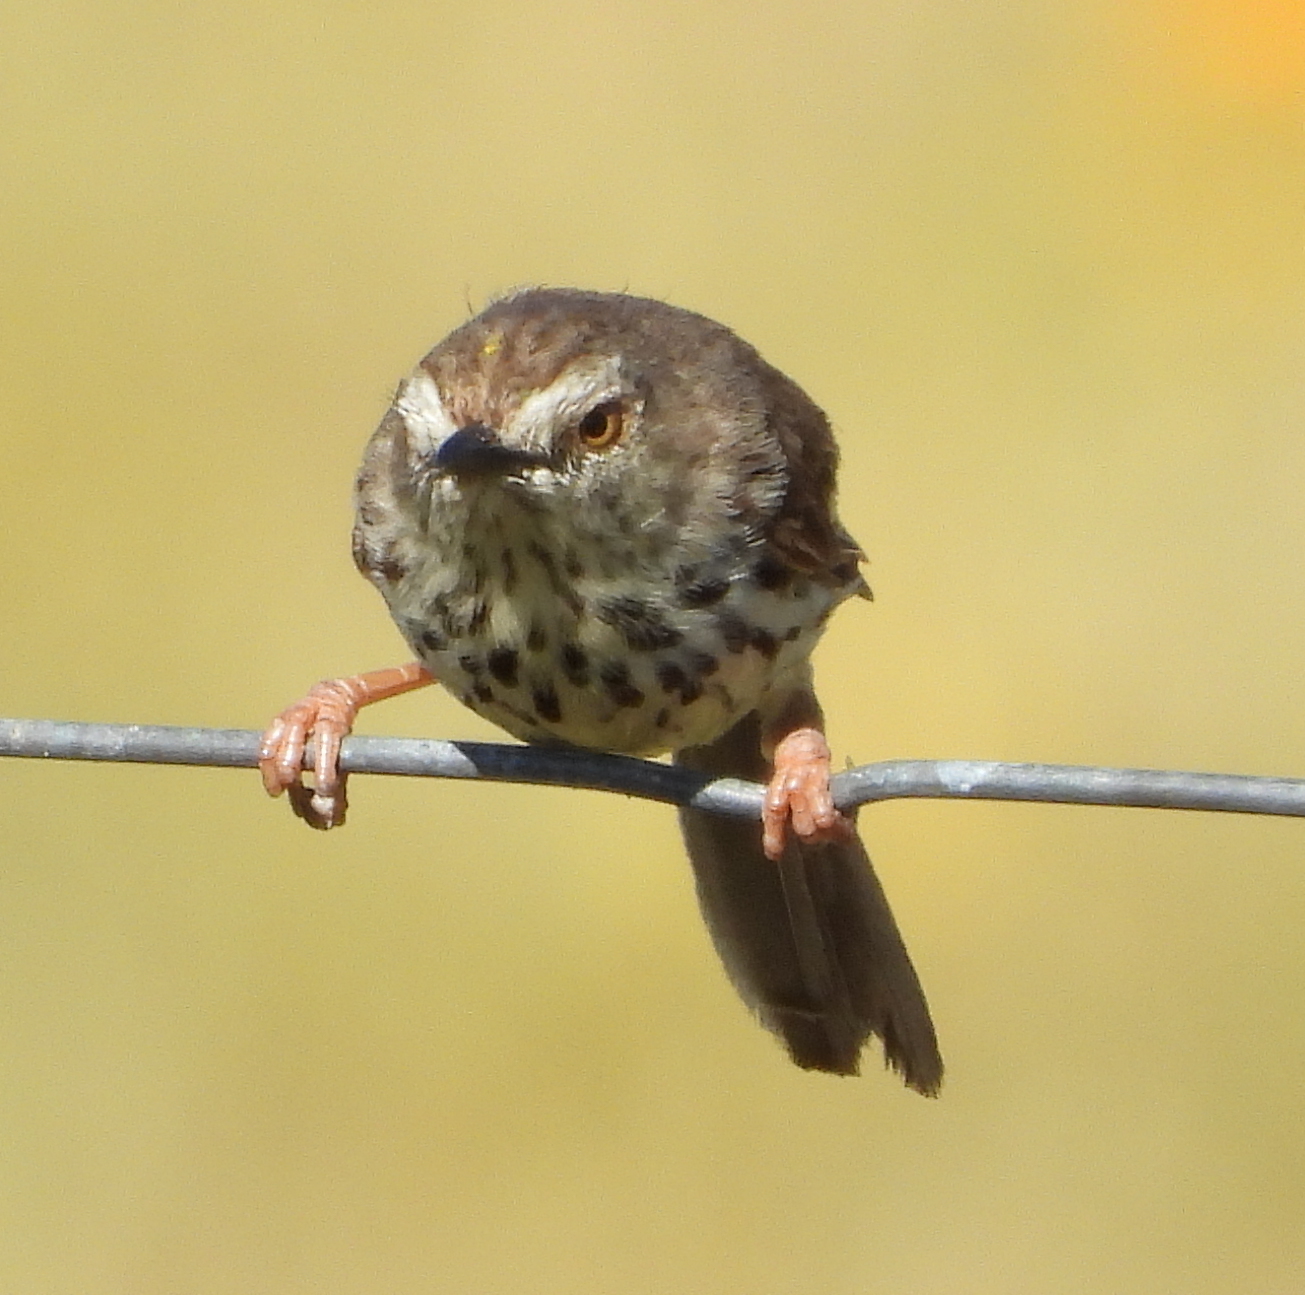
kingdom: Animalia
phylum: Chordata
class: Aves
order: Passeriformes
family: Cisticolidae
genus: Prinia
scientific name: Prinia maculosa
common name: Karoo prinia
